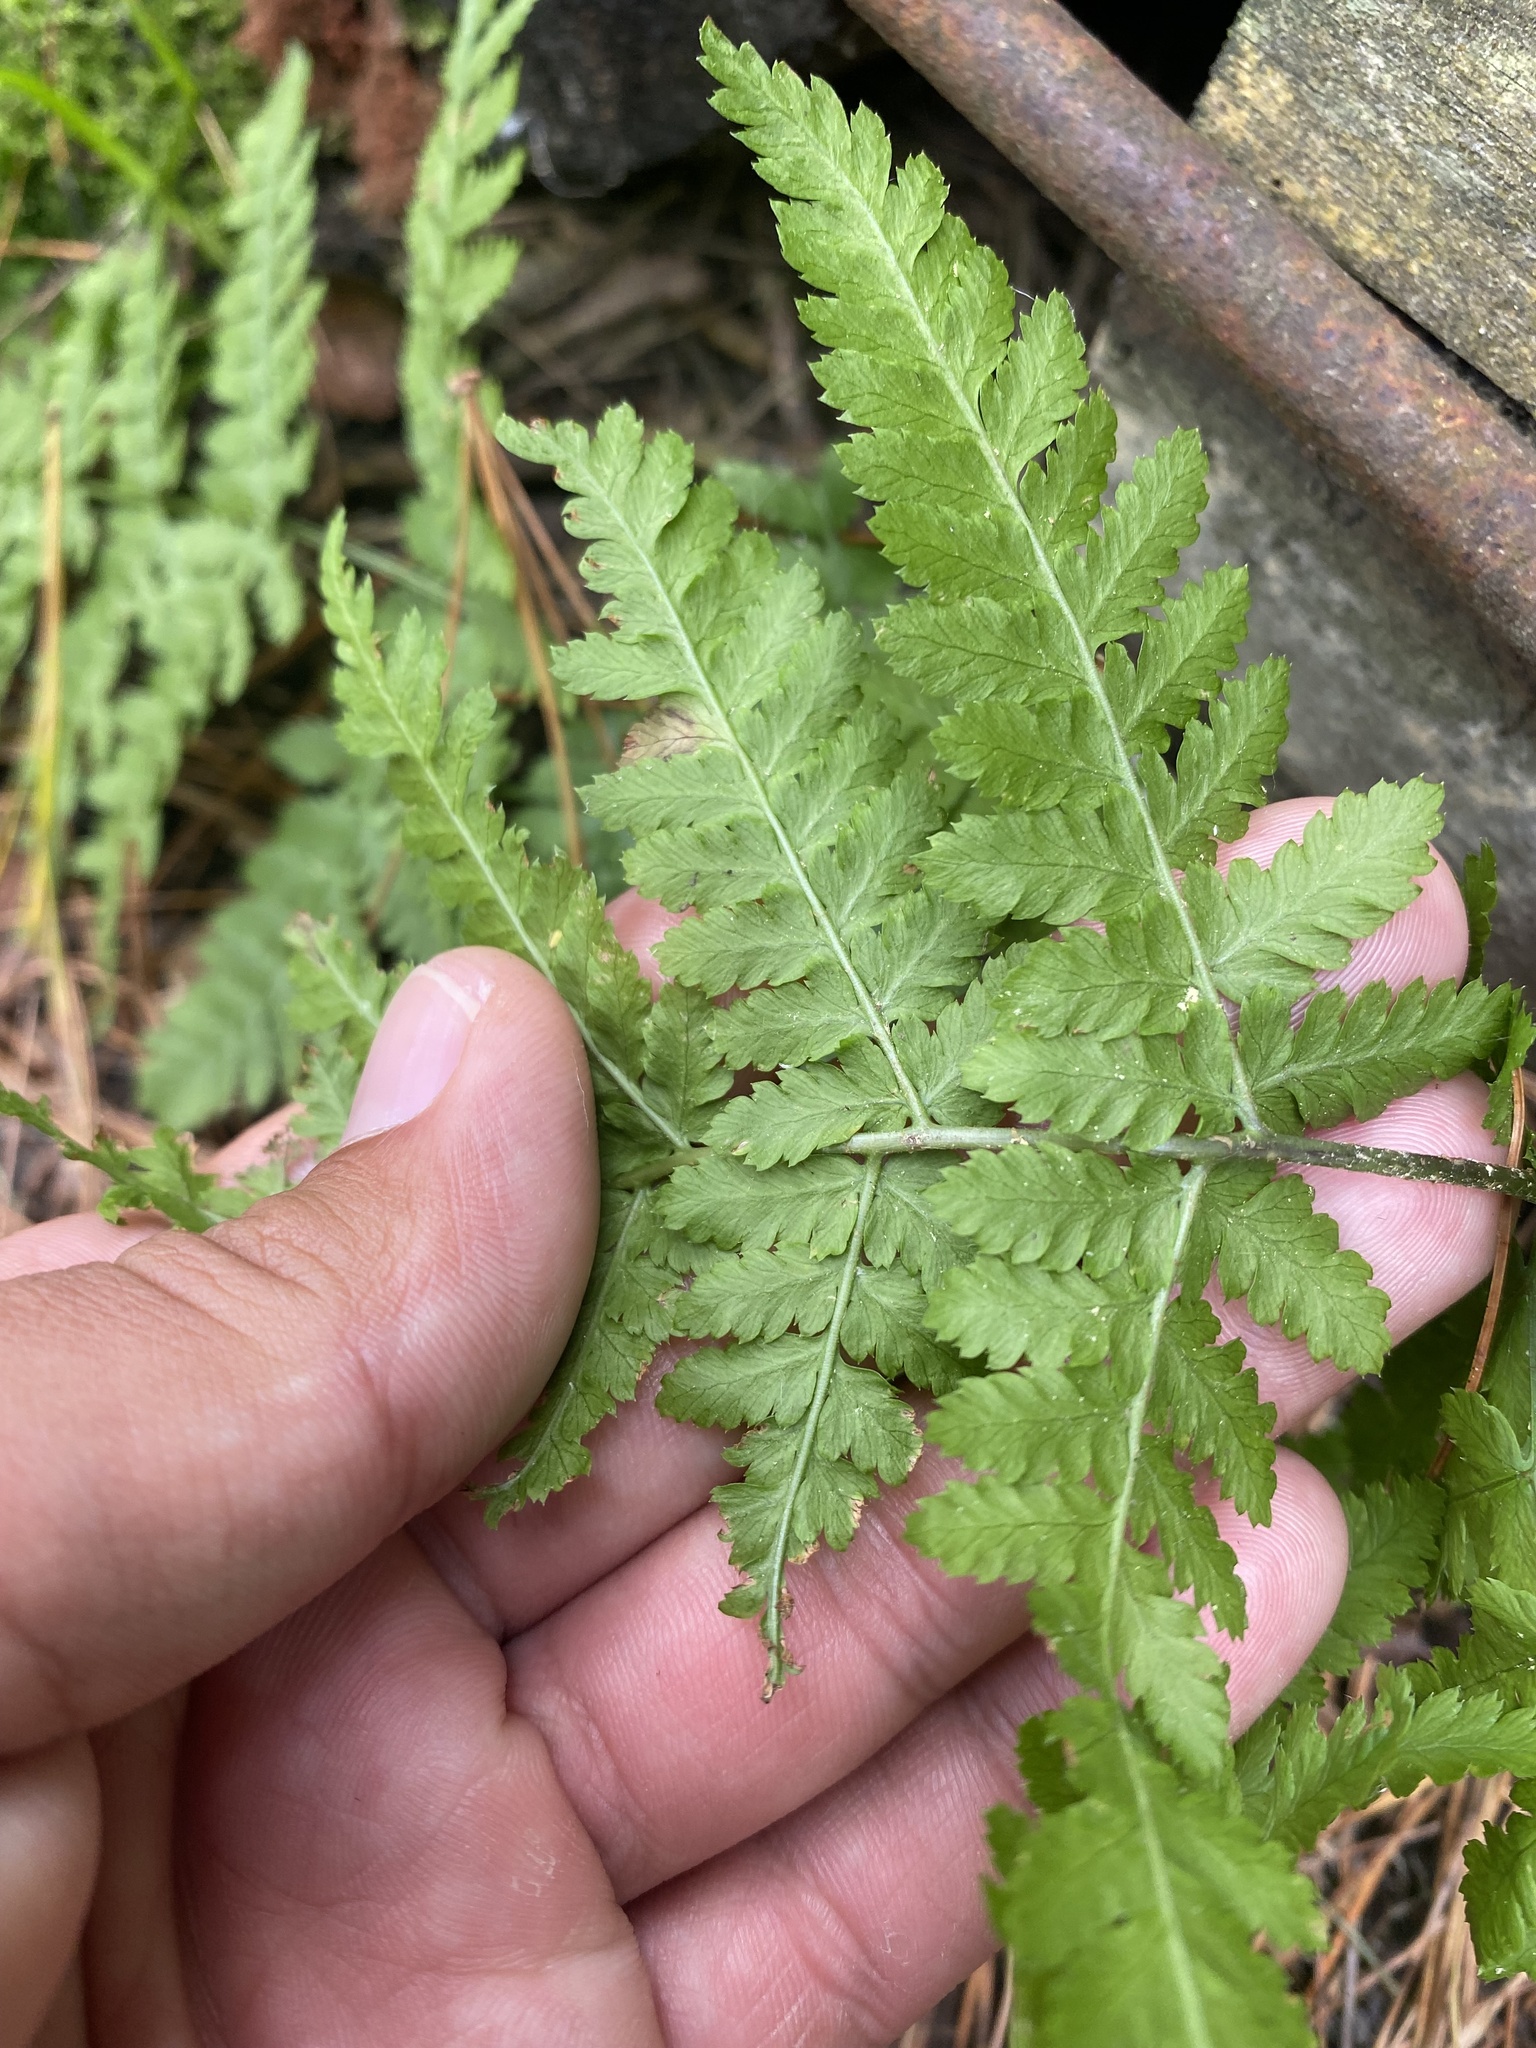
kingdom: Plantae
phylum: Tracheophyta
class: Polypodiopsida
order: Polypodiales
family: Dryopteridaceae
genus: Dryopteris
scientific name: Dryopteris expansa
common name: Northern buckler fern
